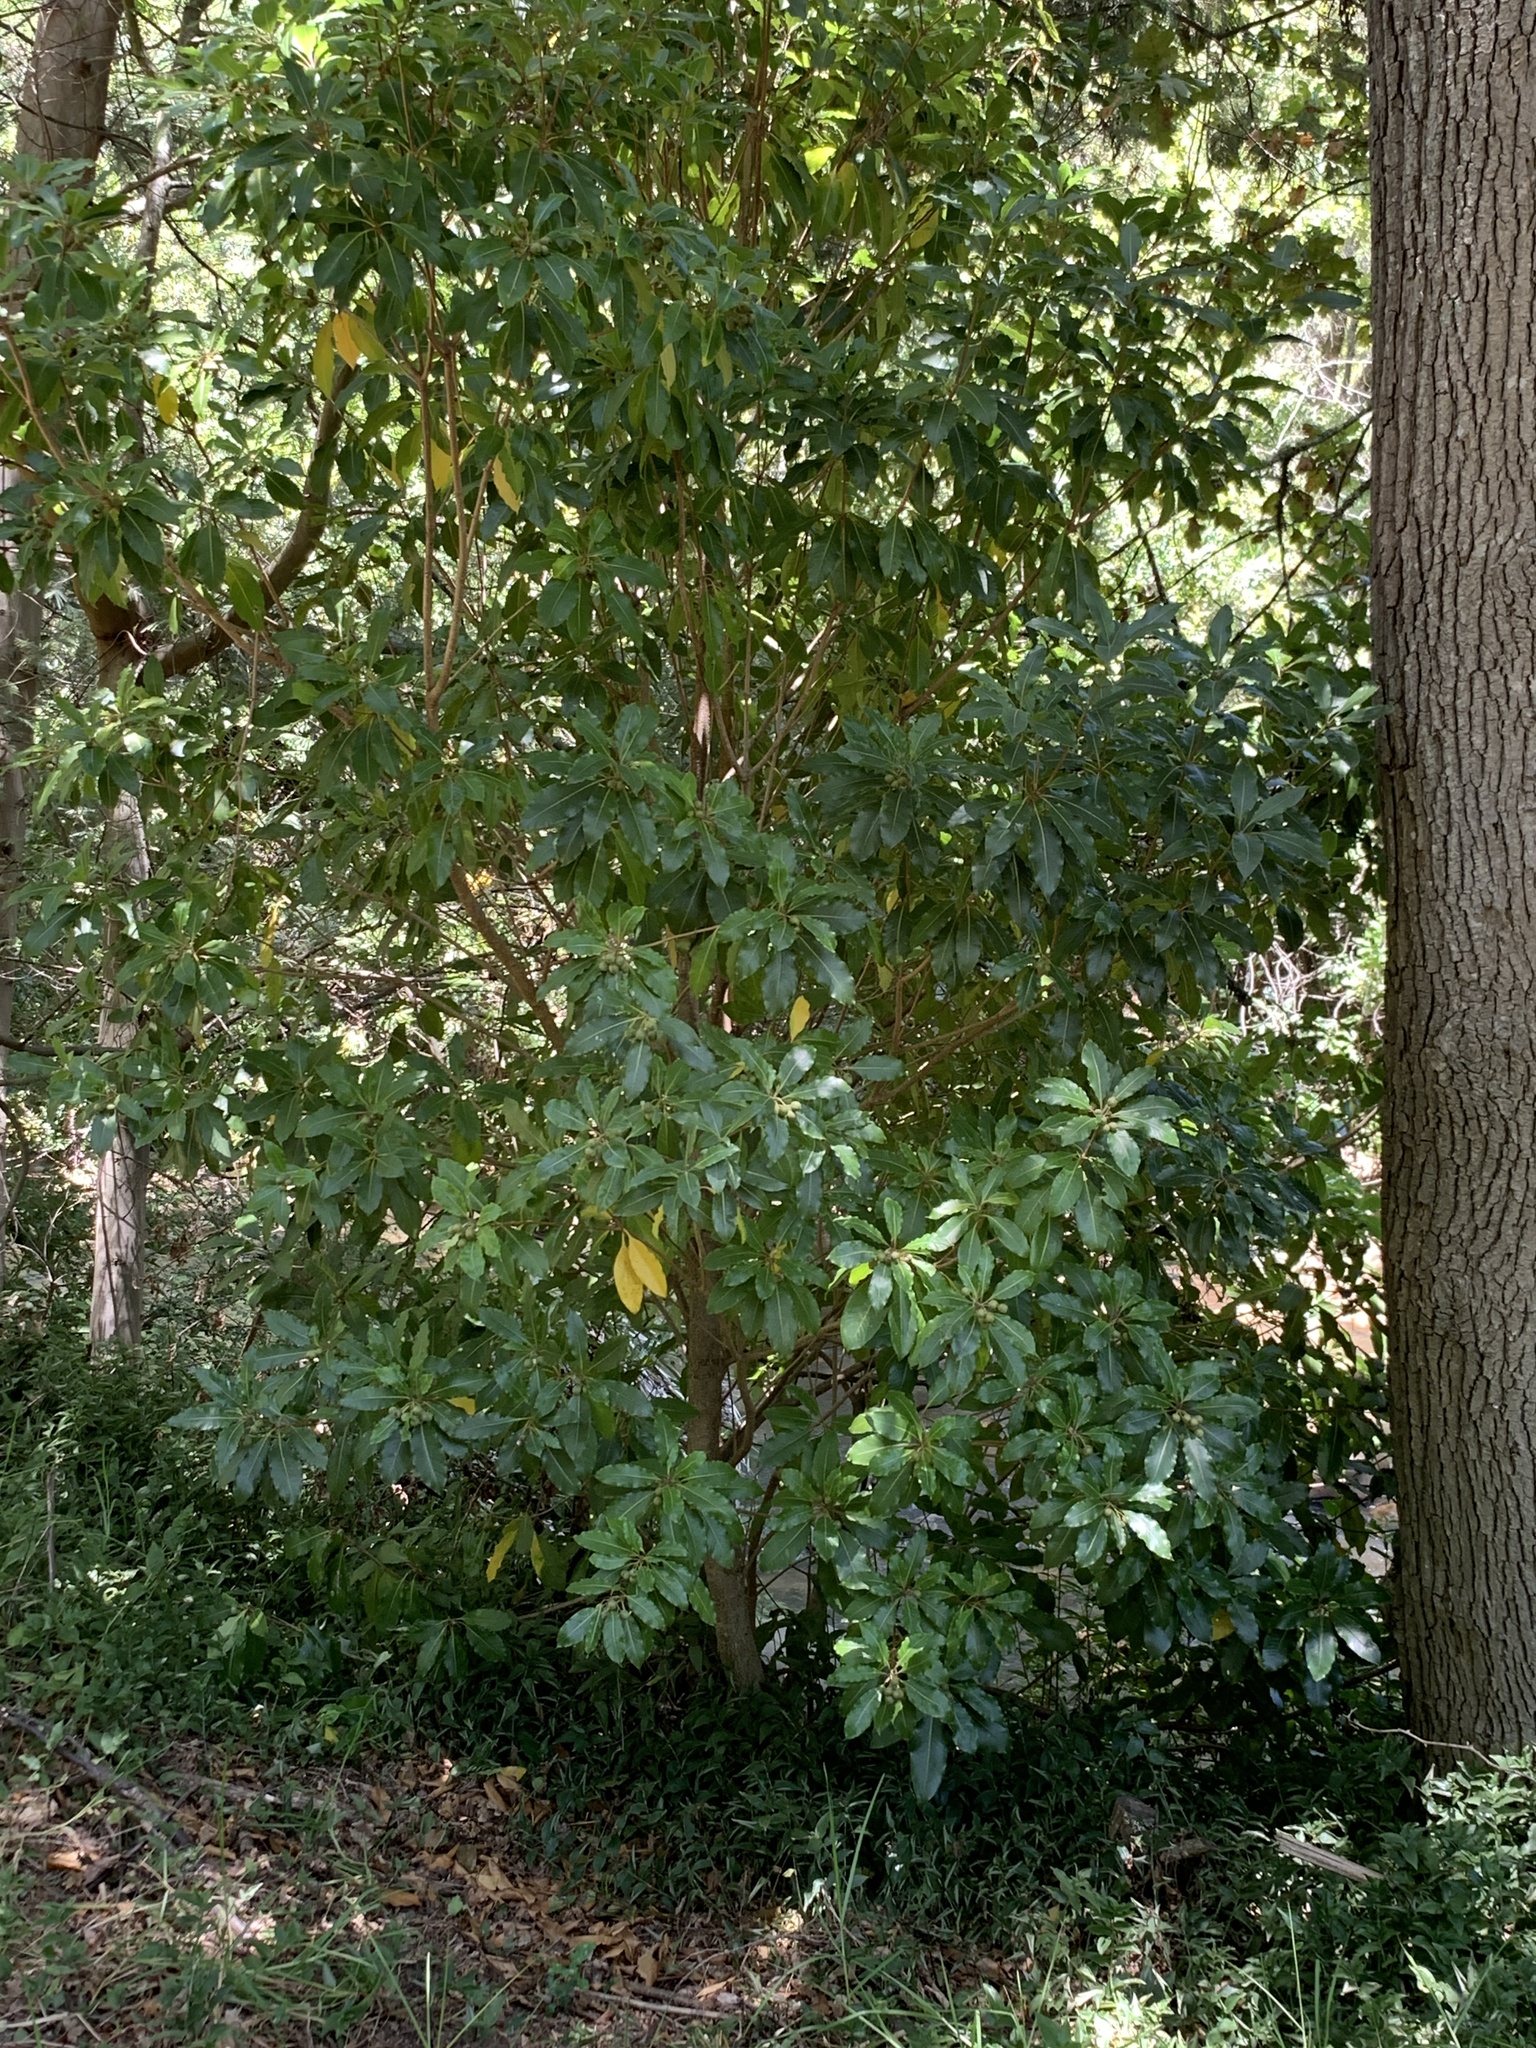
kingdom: Plantae
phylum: Tracheophyta
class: Magnoliopsida
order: Apiales
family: Pittosporaceae
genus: Pittosporum
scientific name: Pittosporum undulatum
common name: Australian cheesewood
